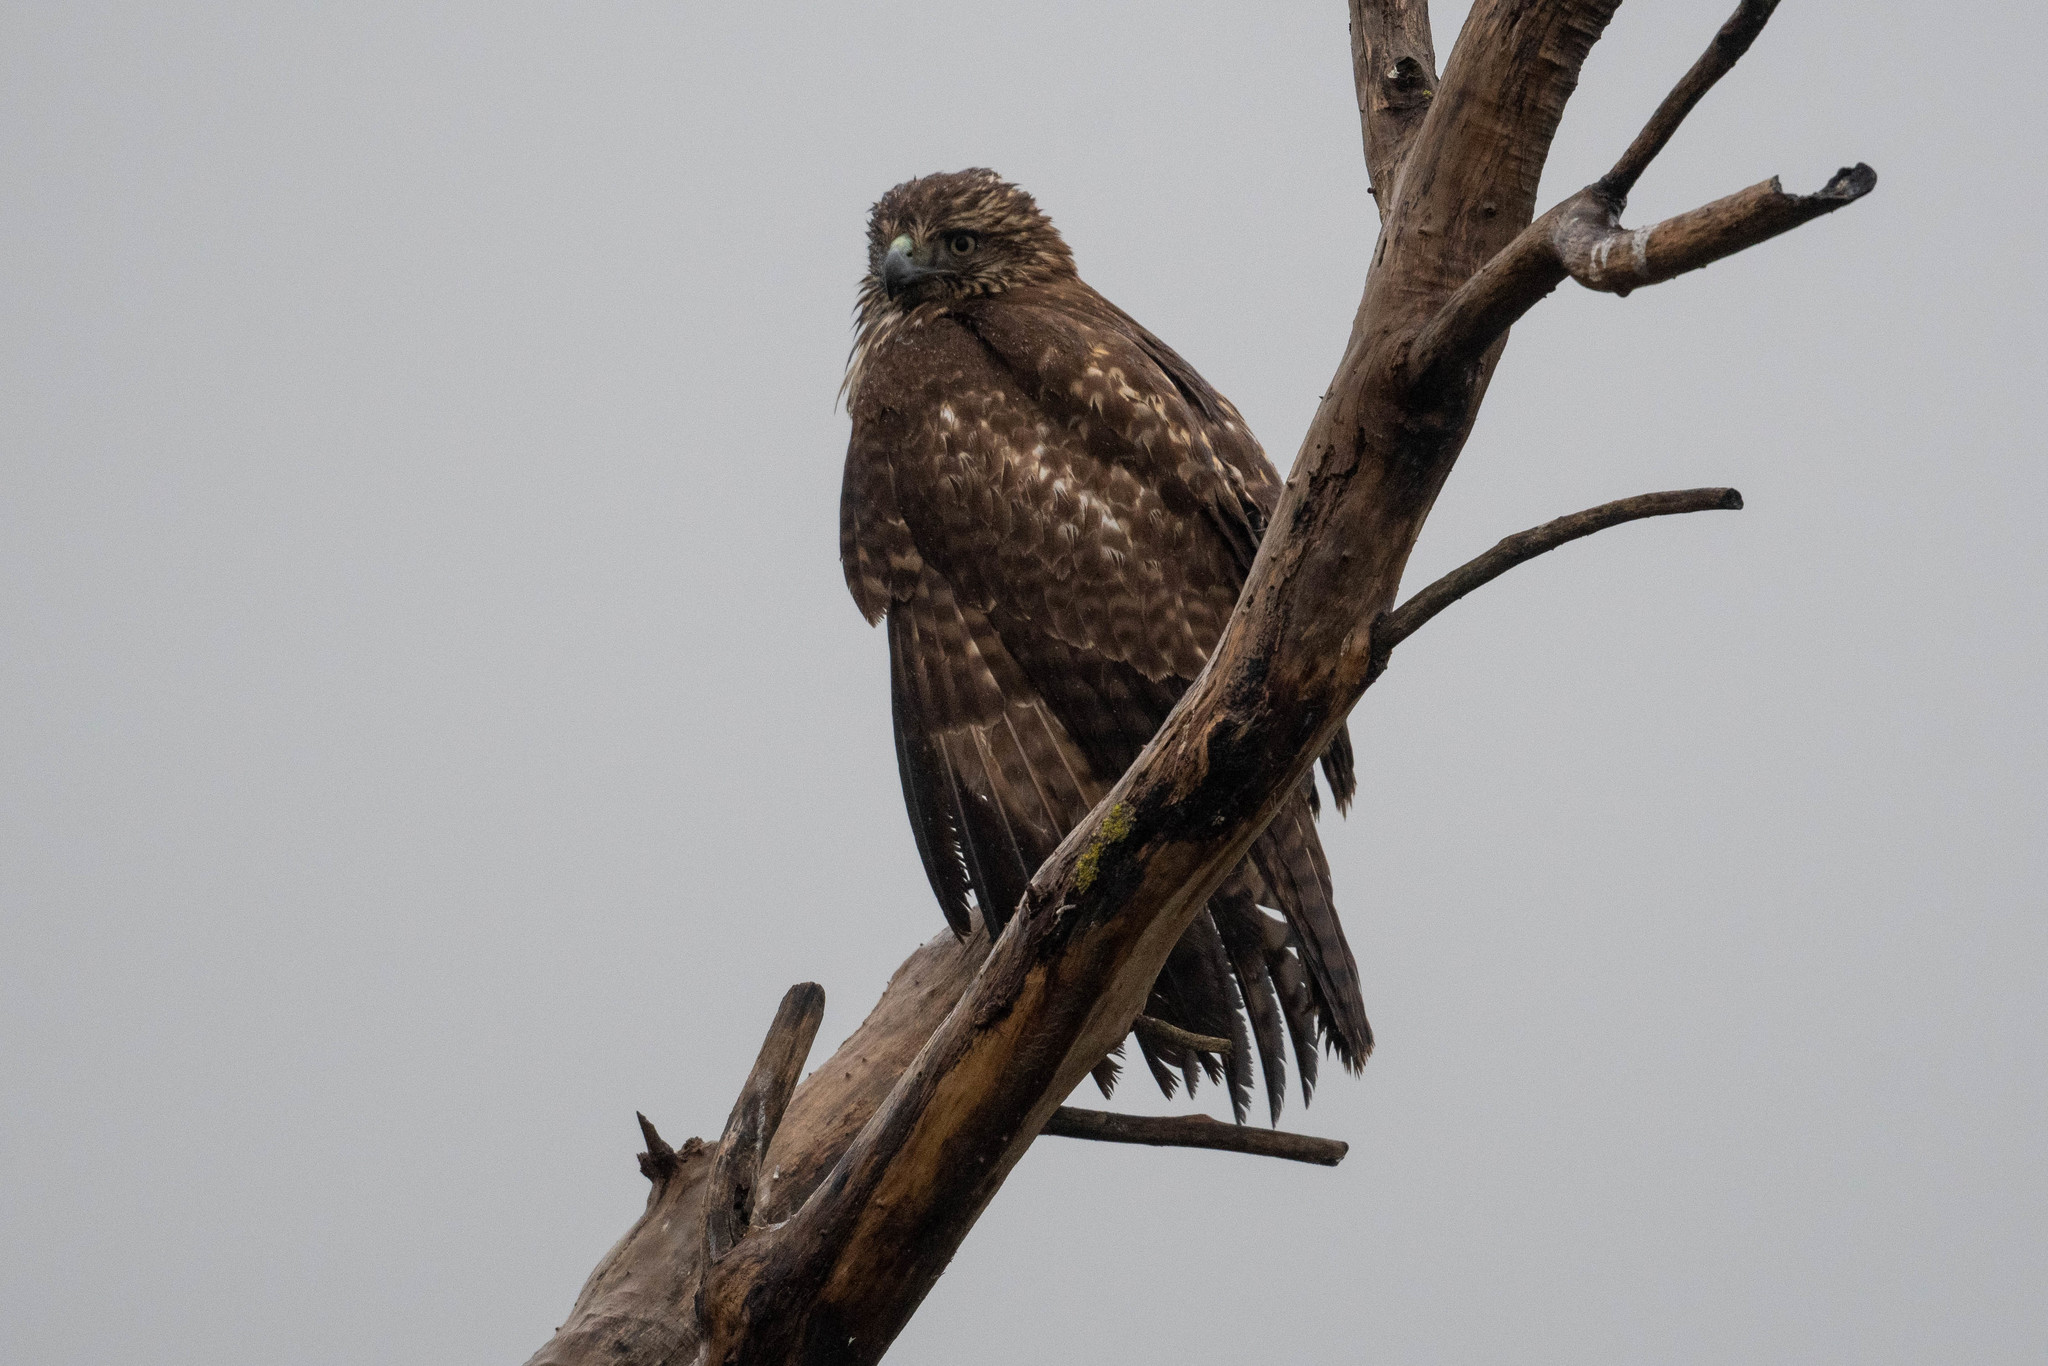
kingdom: Animalia
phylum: Chordata
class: Aves
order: Accipitriformes
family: Accipitridae
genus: Buteo
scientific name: Buteo jamaicensis
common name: Red-tailed hawk
